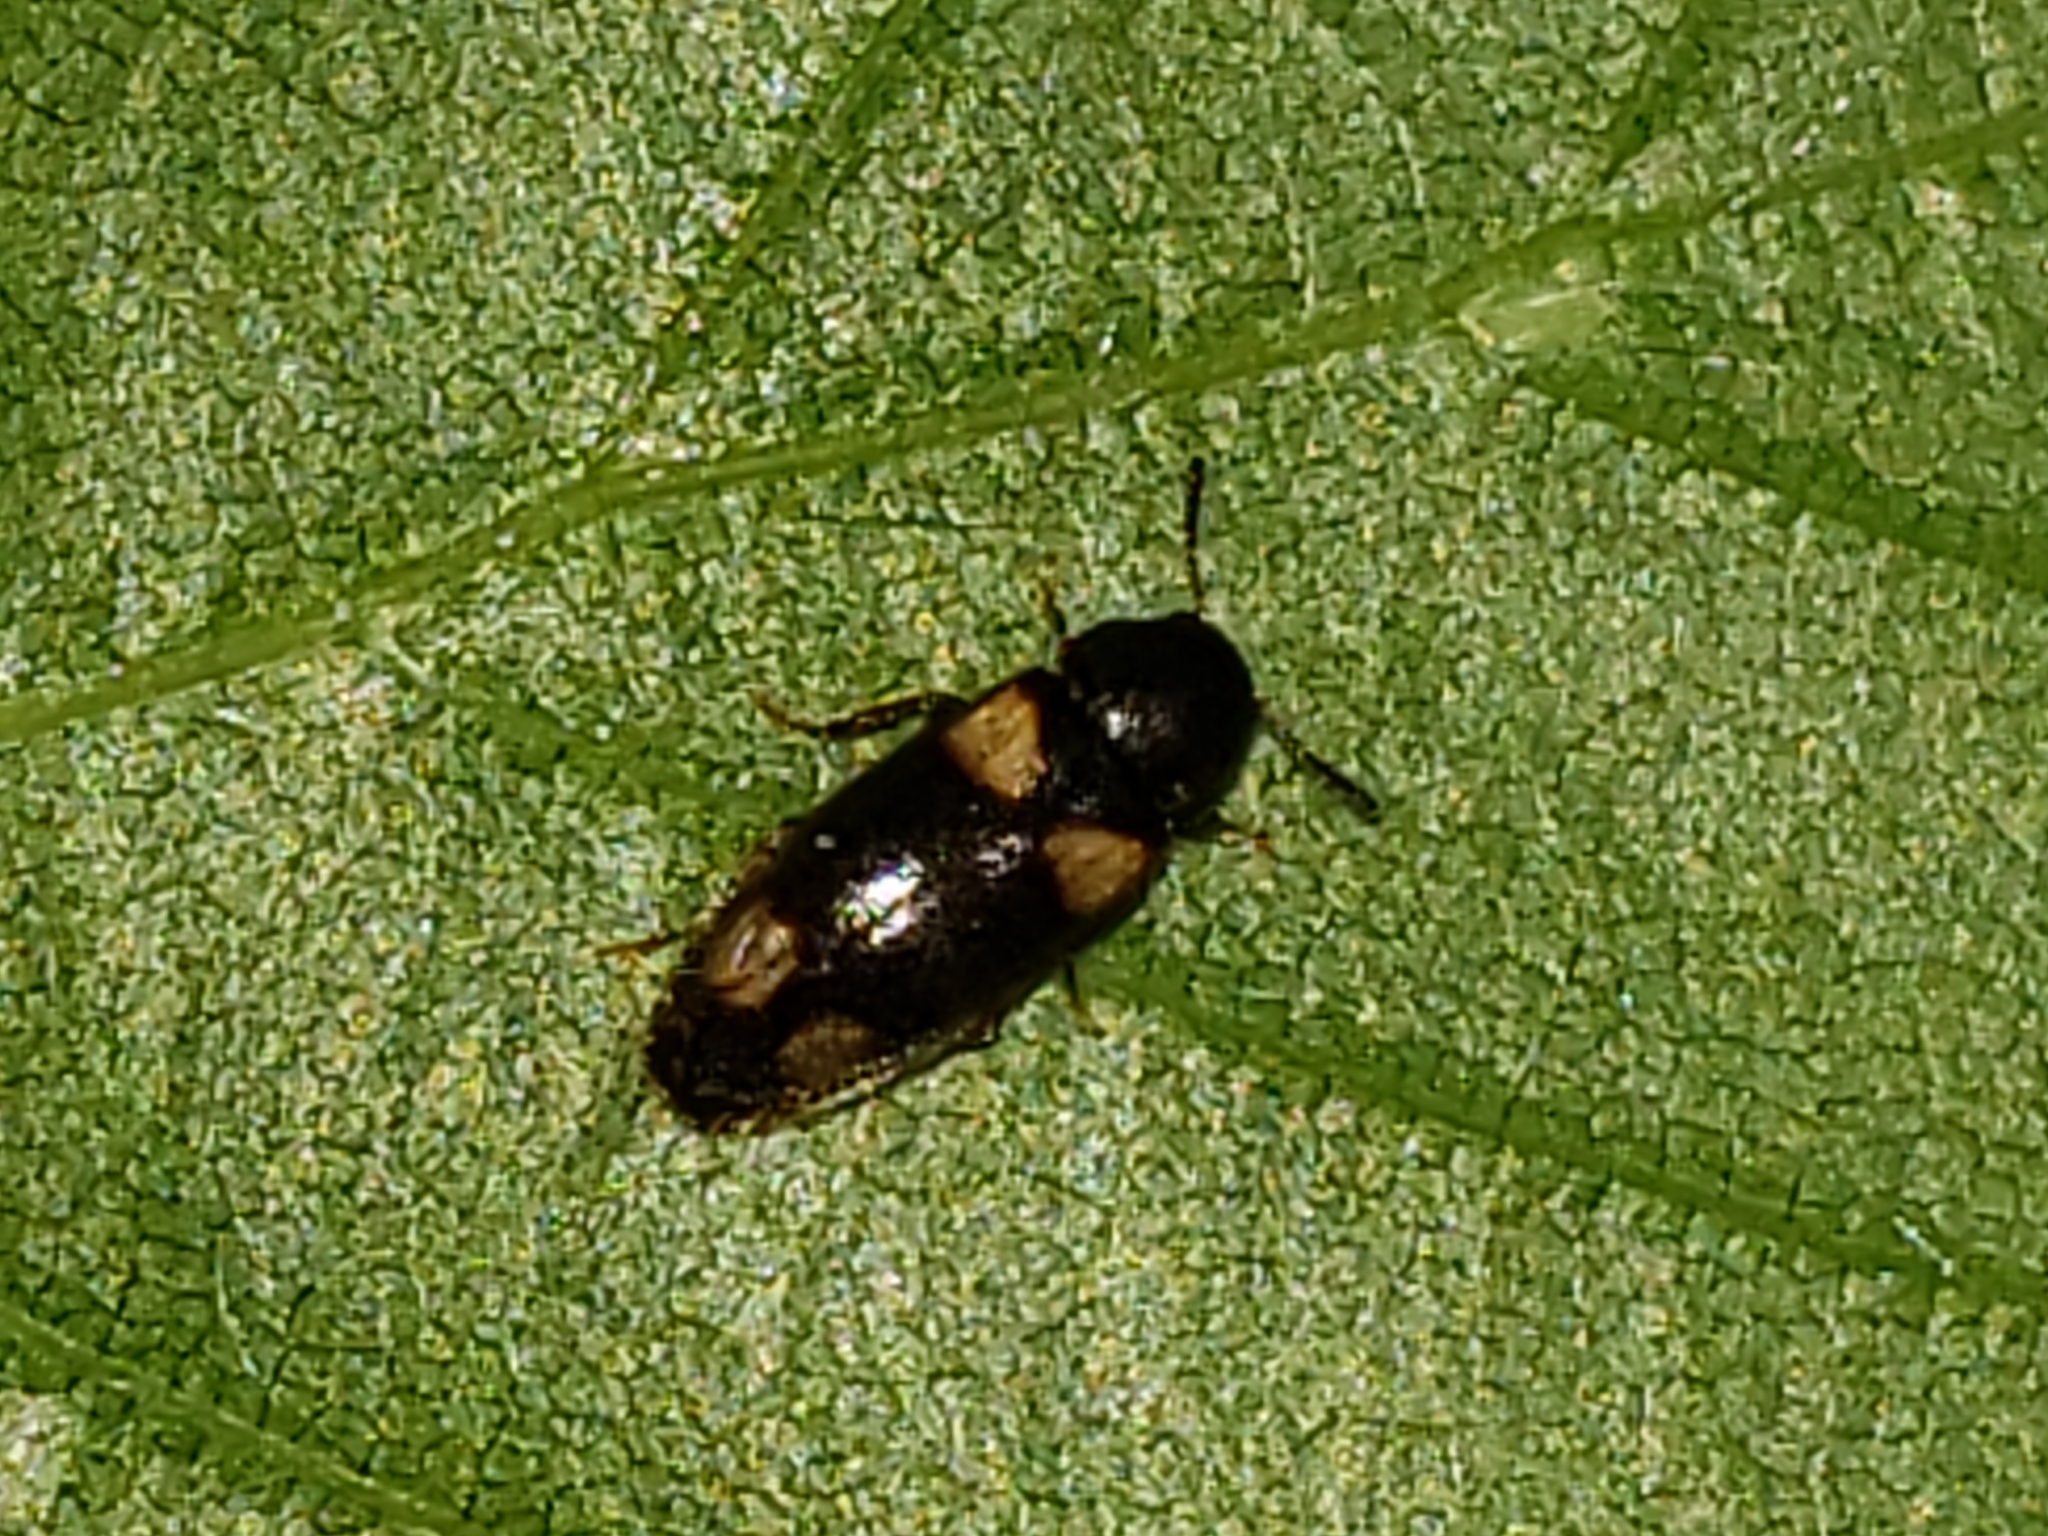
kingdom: Animalia
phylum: Arthropoda
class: Insecta
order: Coleoptera
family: Melandryidae
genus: Spilotus
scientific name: Spilotus quadripustulatus
